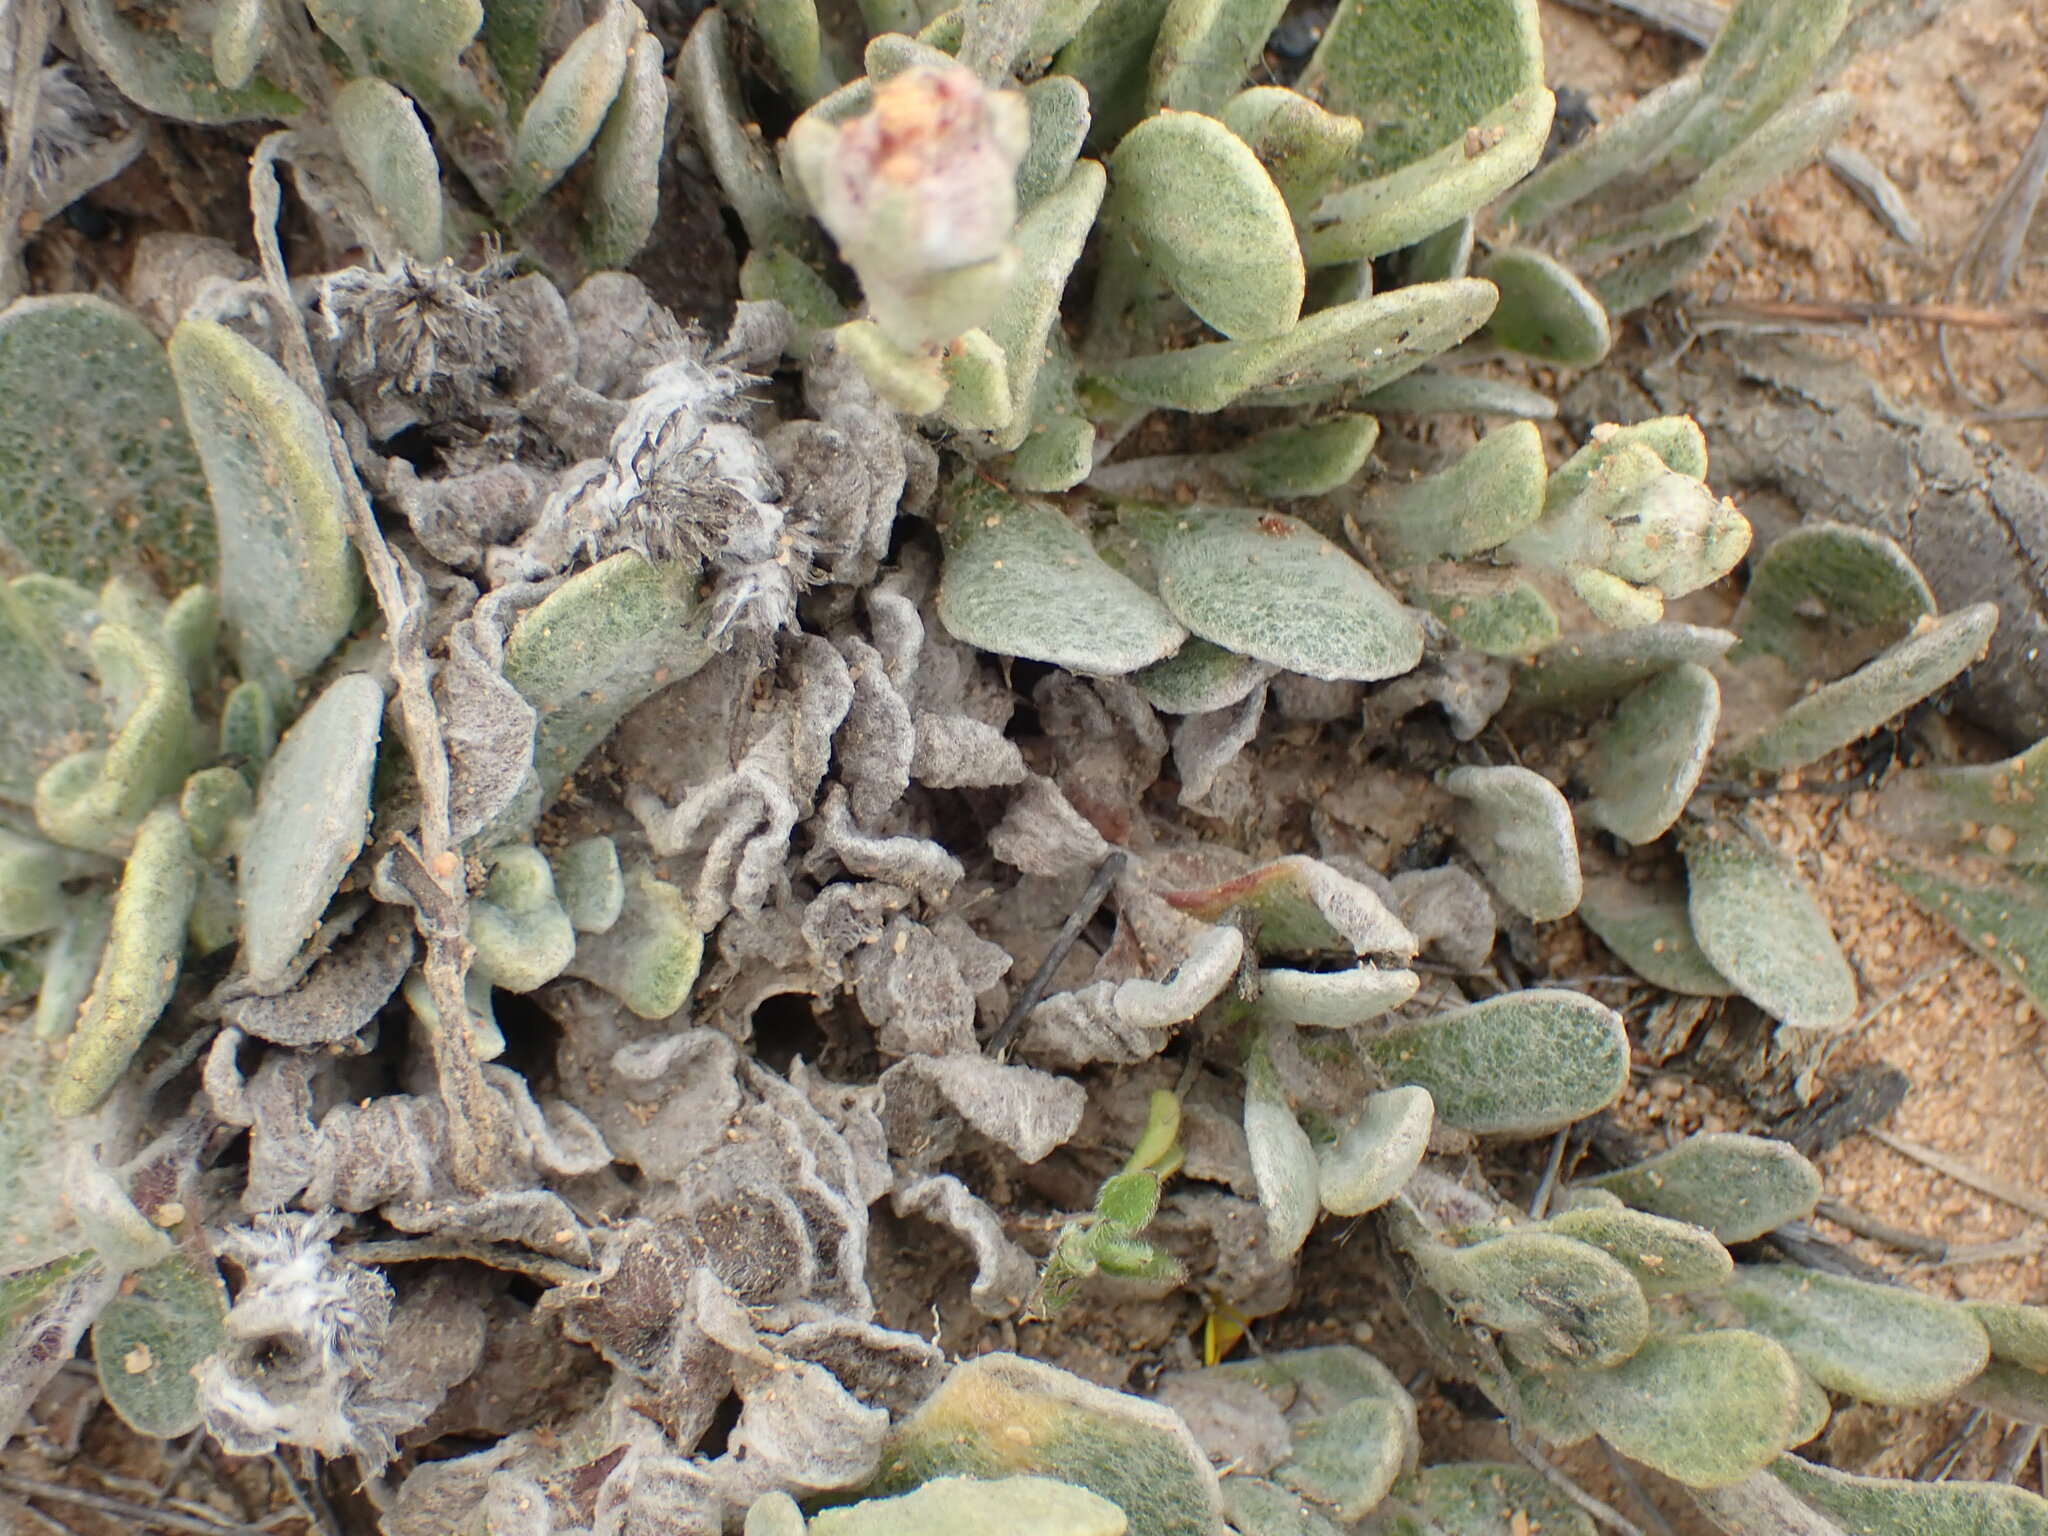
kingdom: Plantae
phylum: Tracheophyta
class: Magnoliopsida
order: Asterales
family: Asteraceae
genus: Helichrysum
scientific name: Helichrysum rotundifolium
